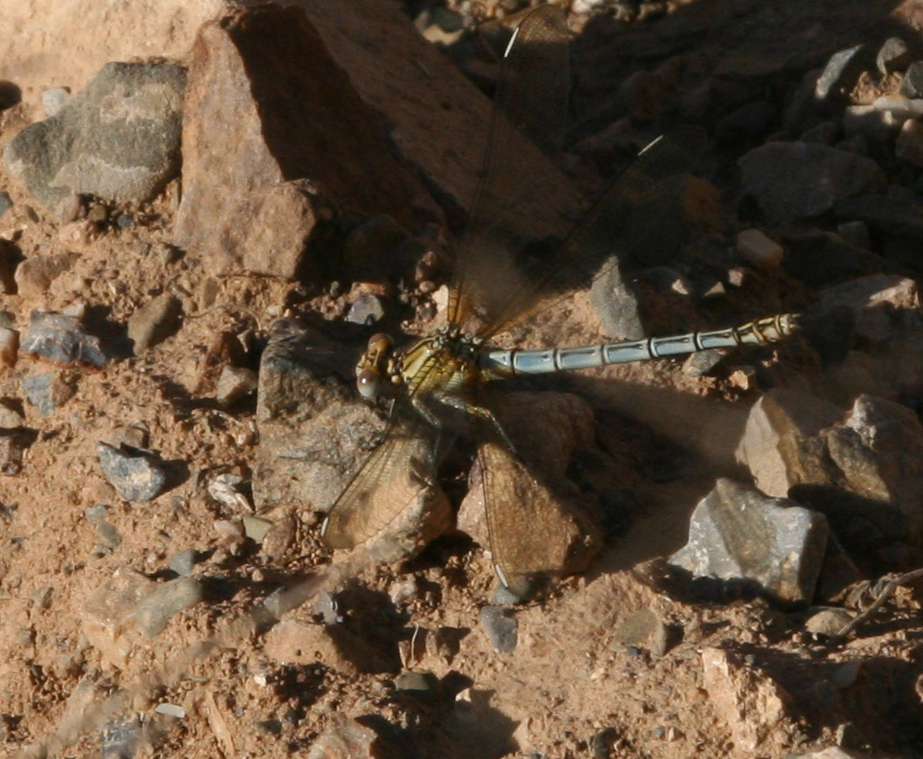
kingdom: Animalia
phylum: Arthropoda
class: Insecta
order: Odonata
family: Euphaeidae
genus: Epallage
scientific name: Epallage fatime
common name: Odalisque
